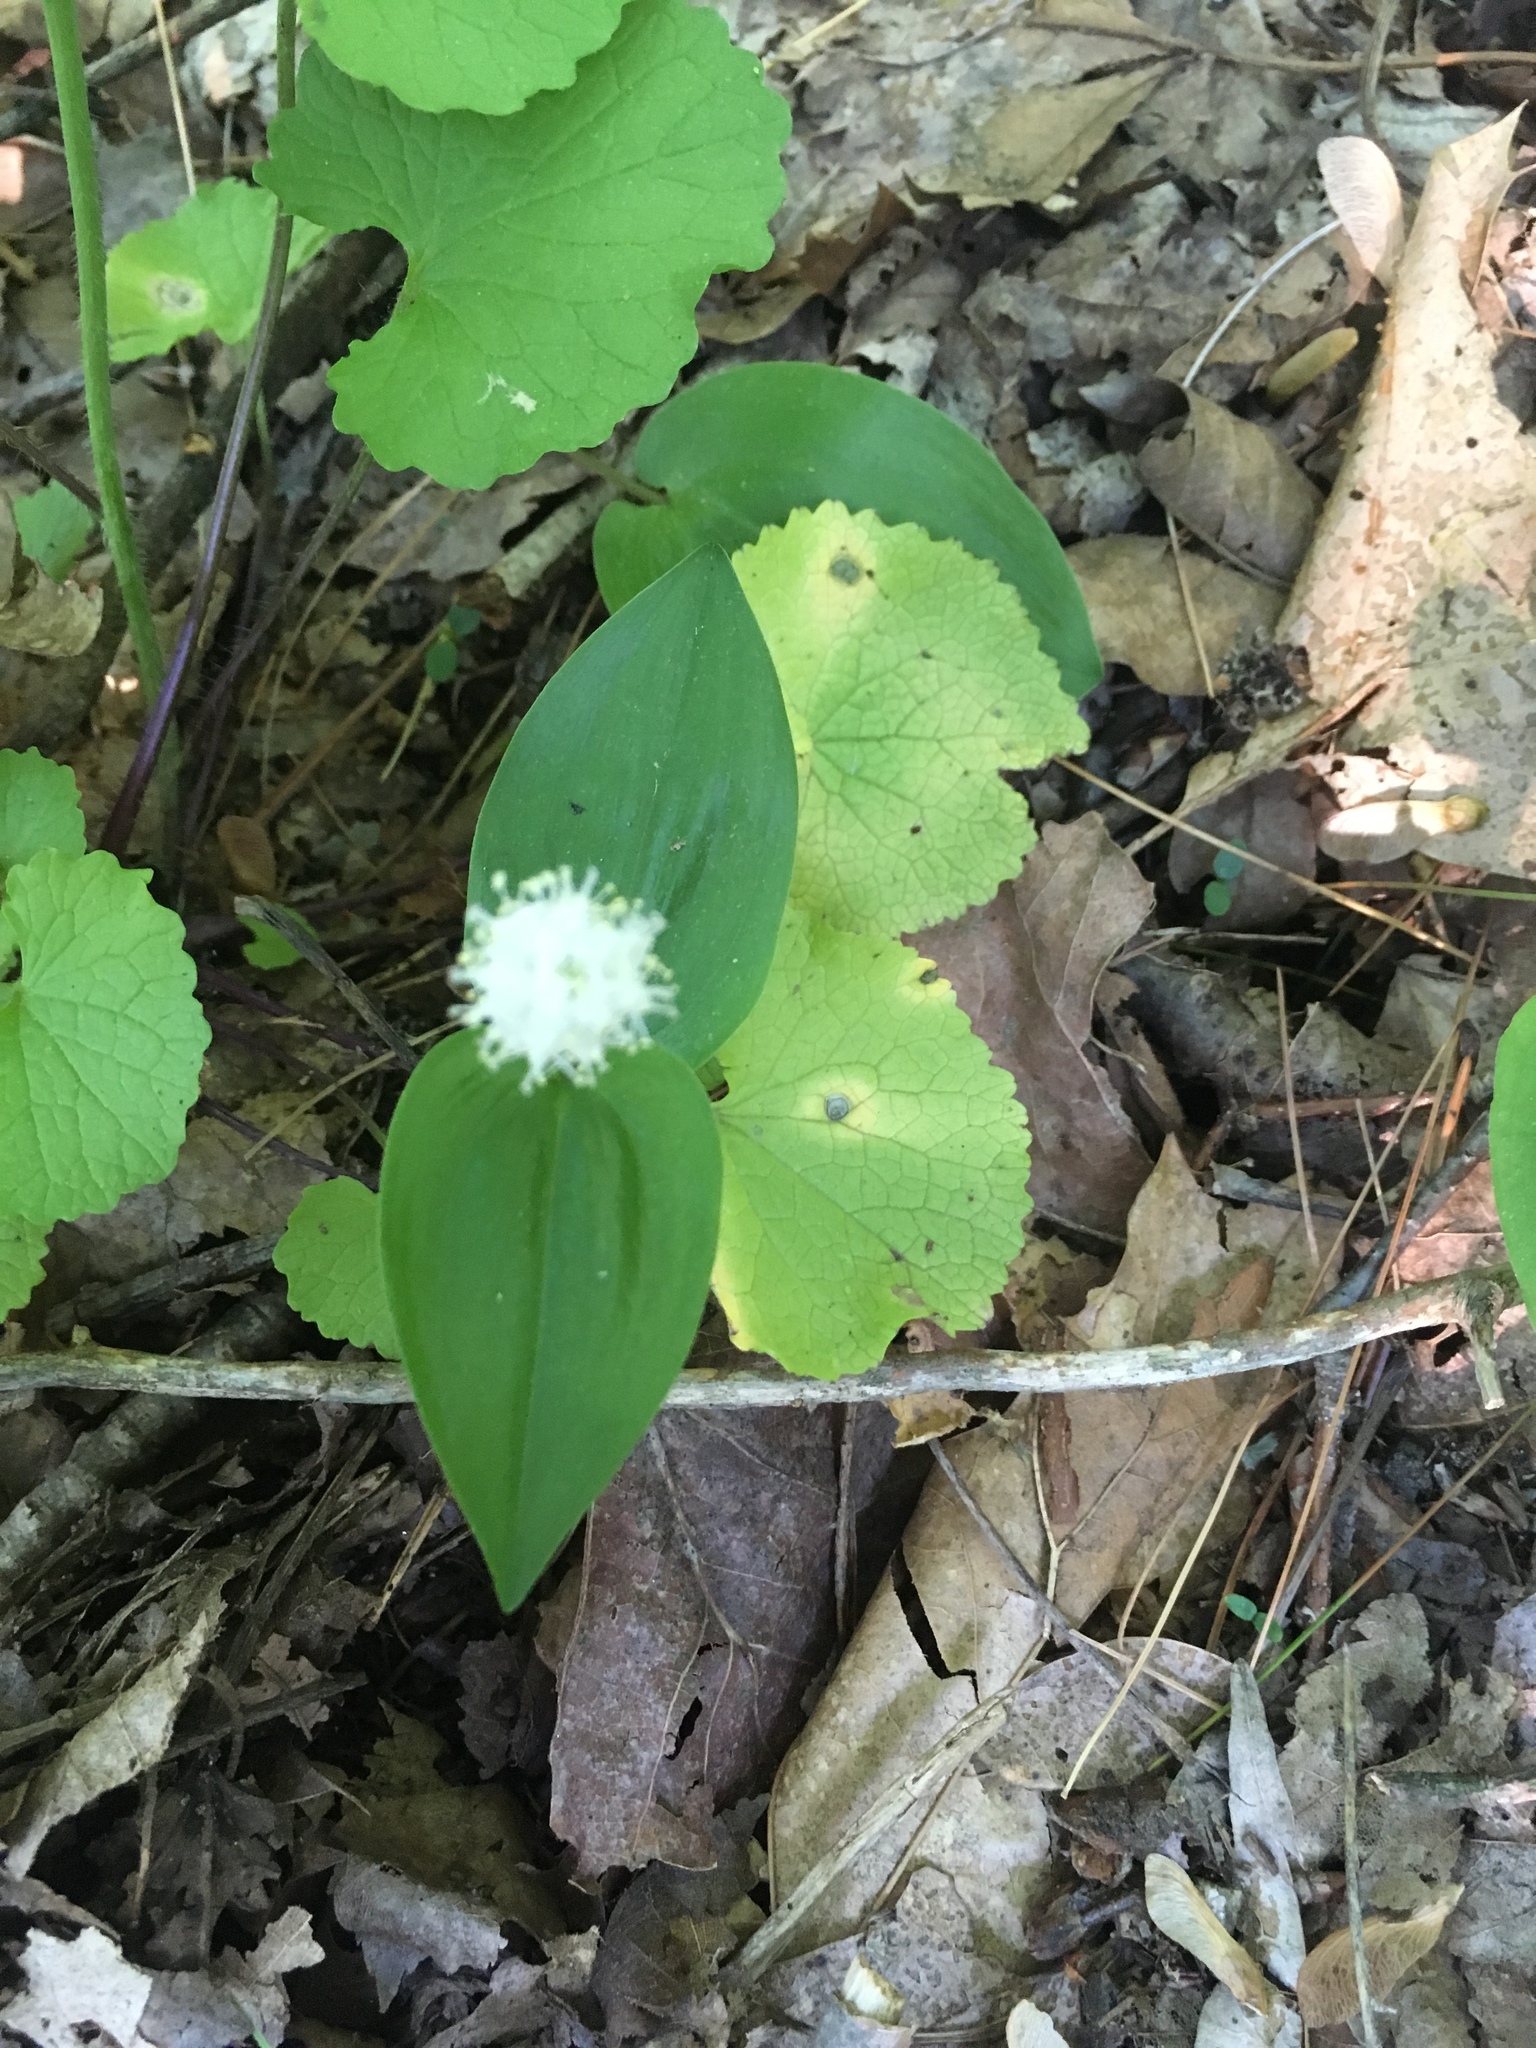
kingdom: Plantae
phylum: Tracheophyta
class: Liliopsida
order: Asparagales
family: Asparagaceae
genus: Maianthemum
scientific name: Maianthemum canadense
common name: False lily-of-the-valley
